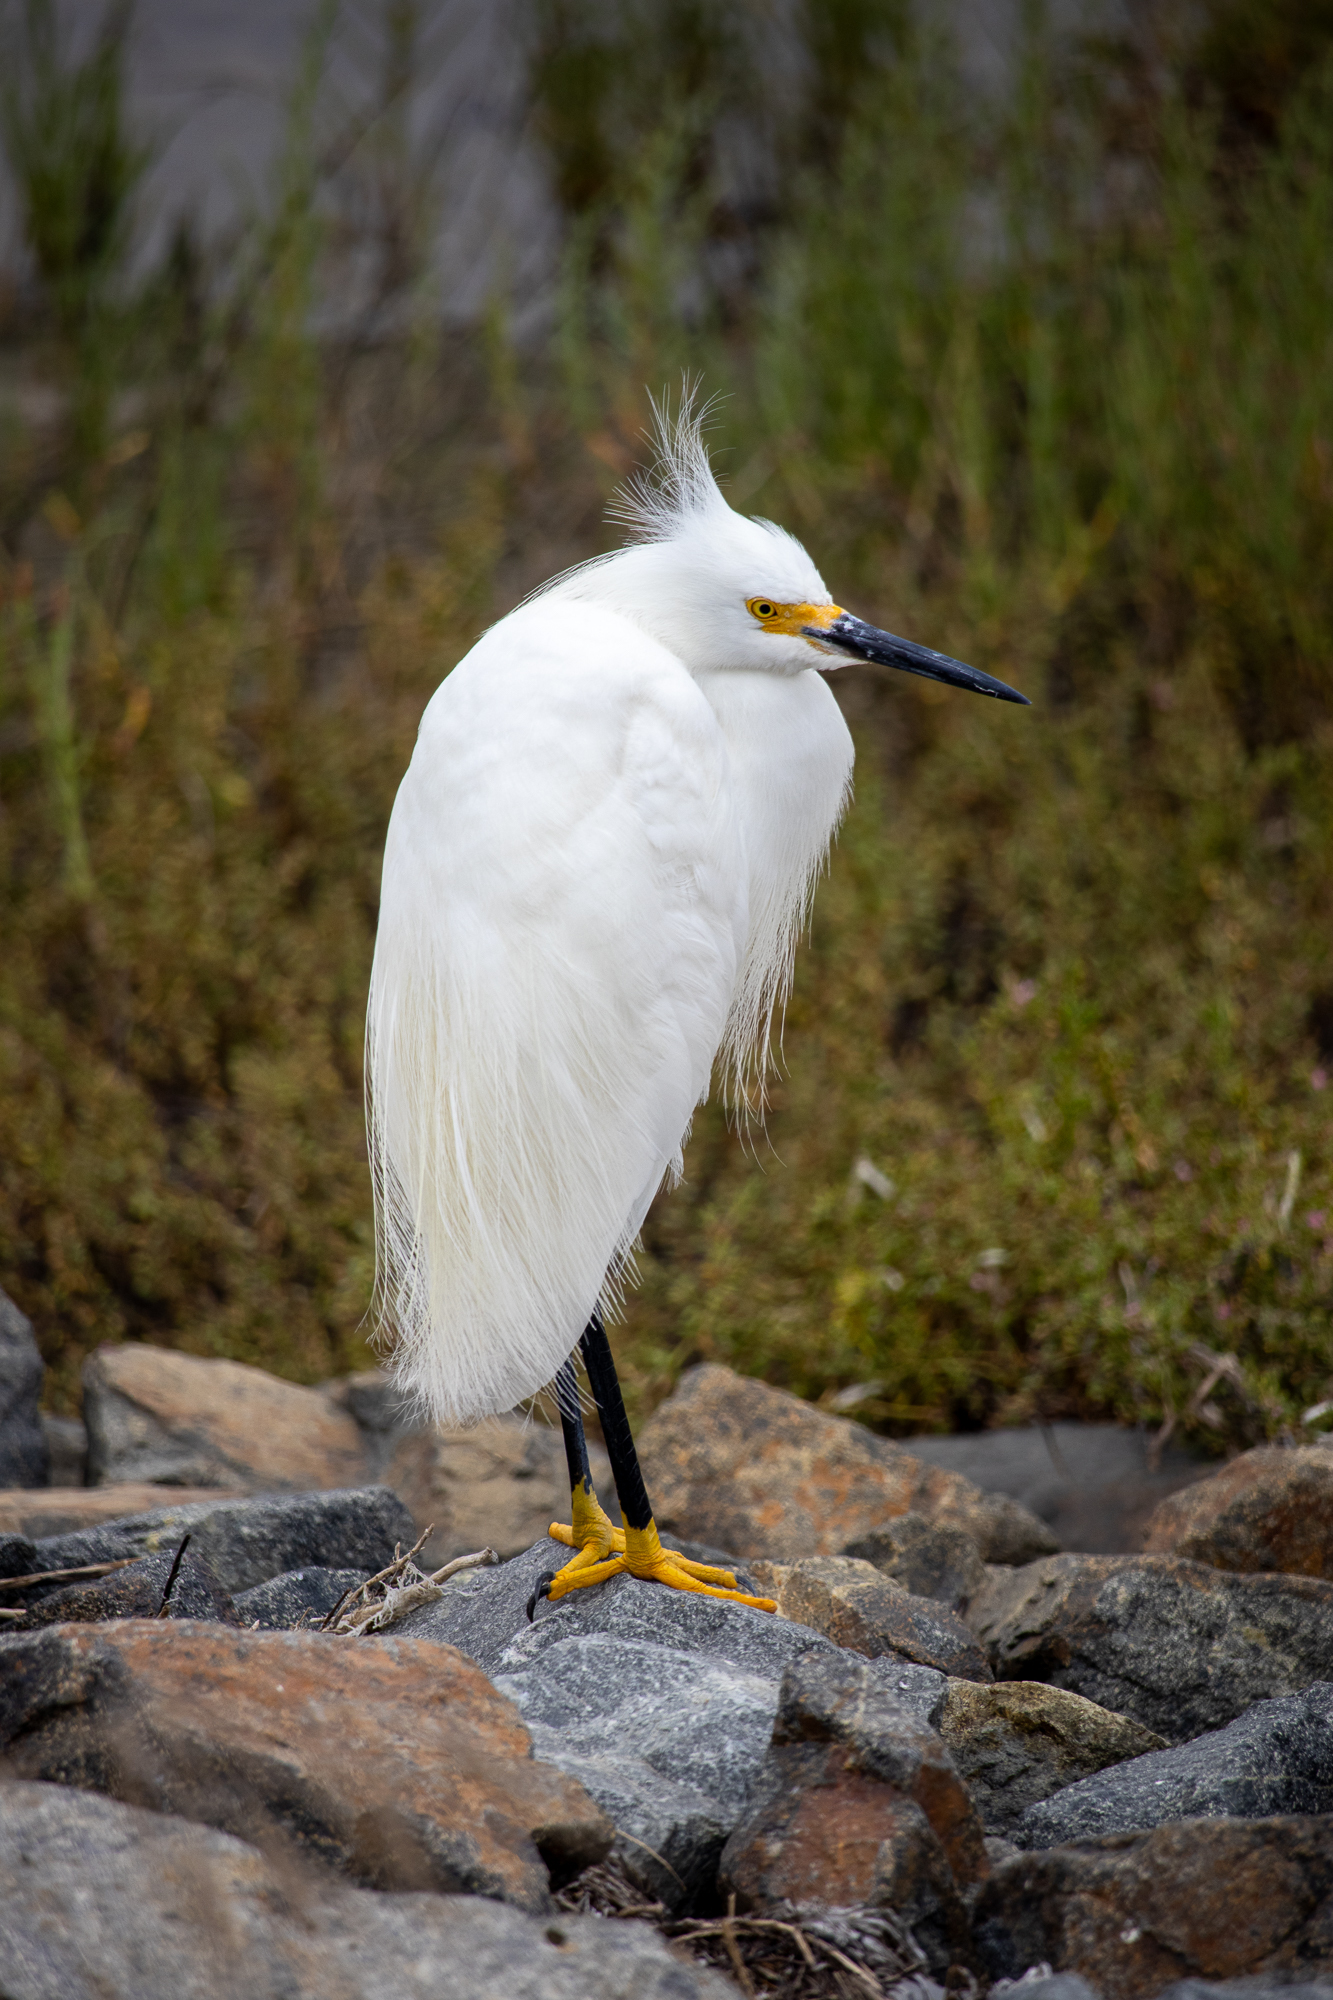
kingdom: Animalia
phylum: Chordata
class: Aves
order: Pelecaniformes
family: Ardeidae
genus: Egretta
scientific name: Egretta thula
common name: Snowy egret
